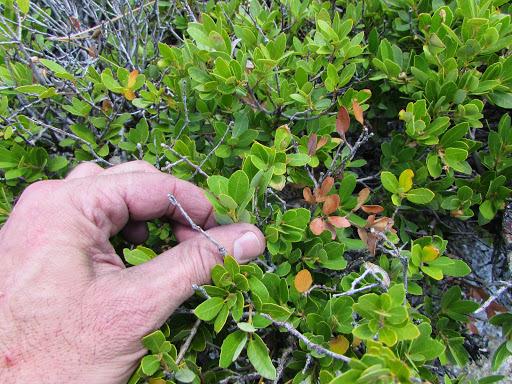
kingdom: Plantae
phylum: Tracheophyta
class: Magnoliopsida
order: Fagales
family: Fagaceae
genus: Quercus
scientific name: Quercus vacciniifolia
